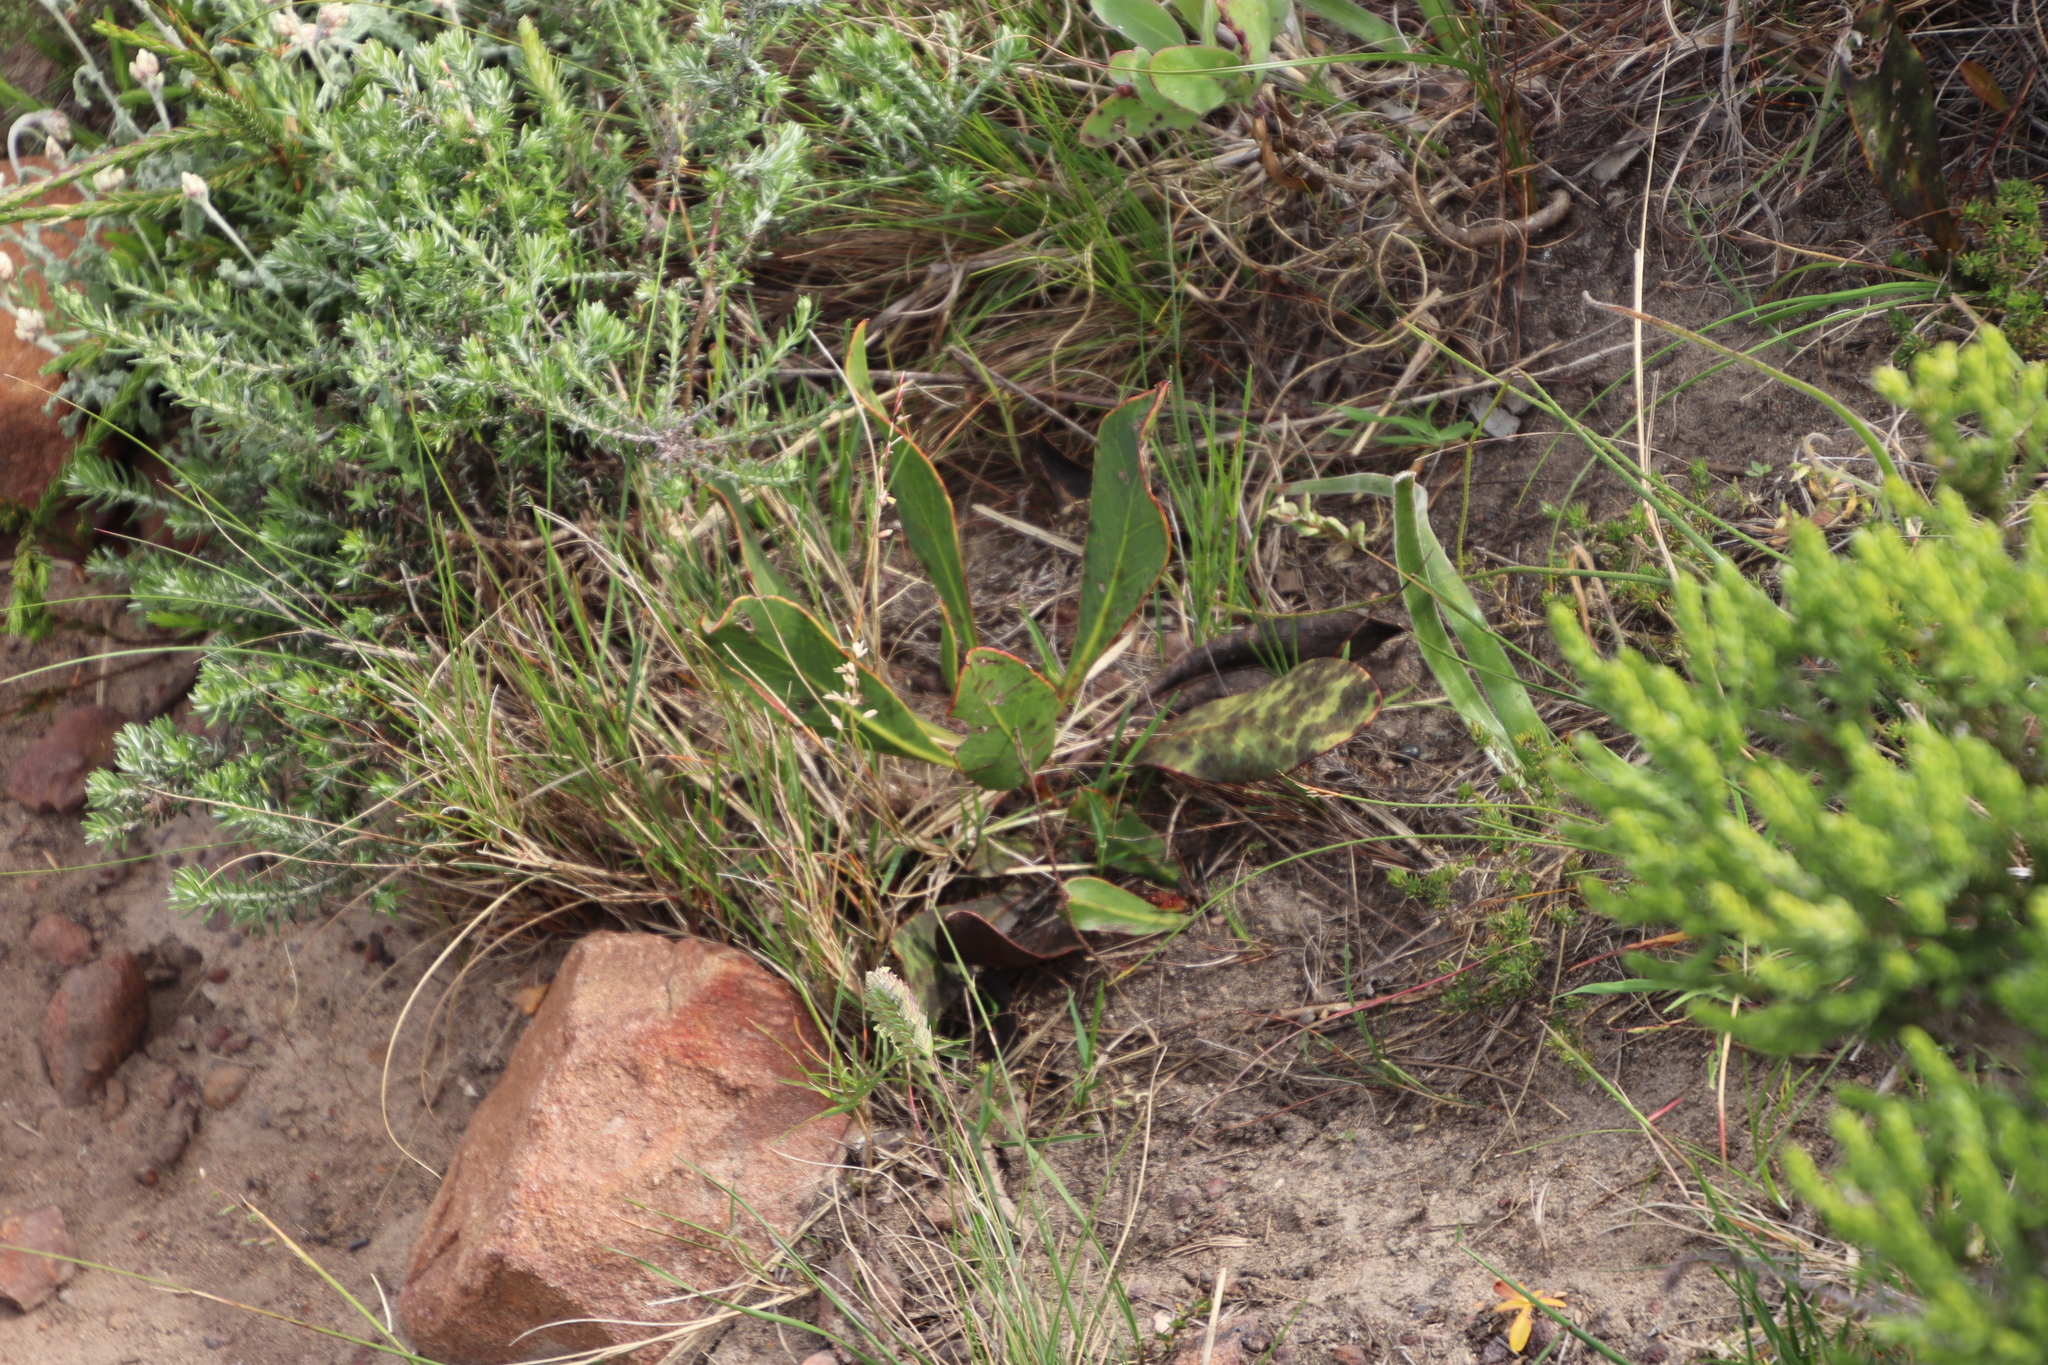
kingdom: Plantae
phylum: Tracheophyta
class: Magnoliopsida
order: Proteales
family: Proteaceae
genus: Protea
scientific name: Protea acaulos
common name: Common ground sugarbush
